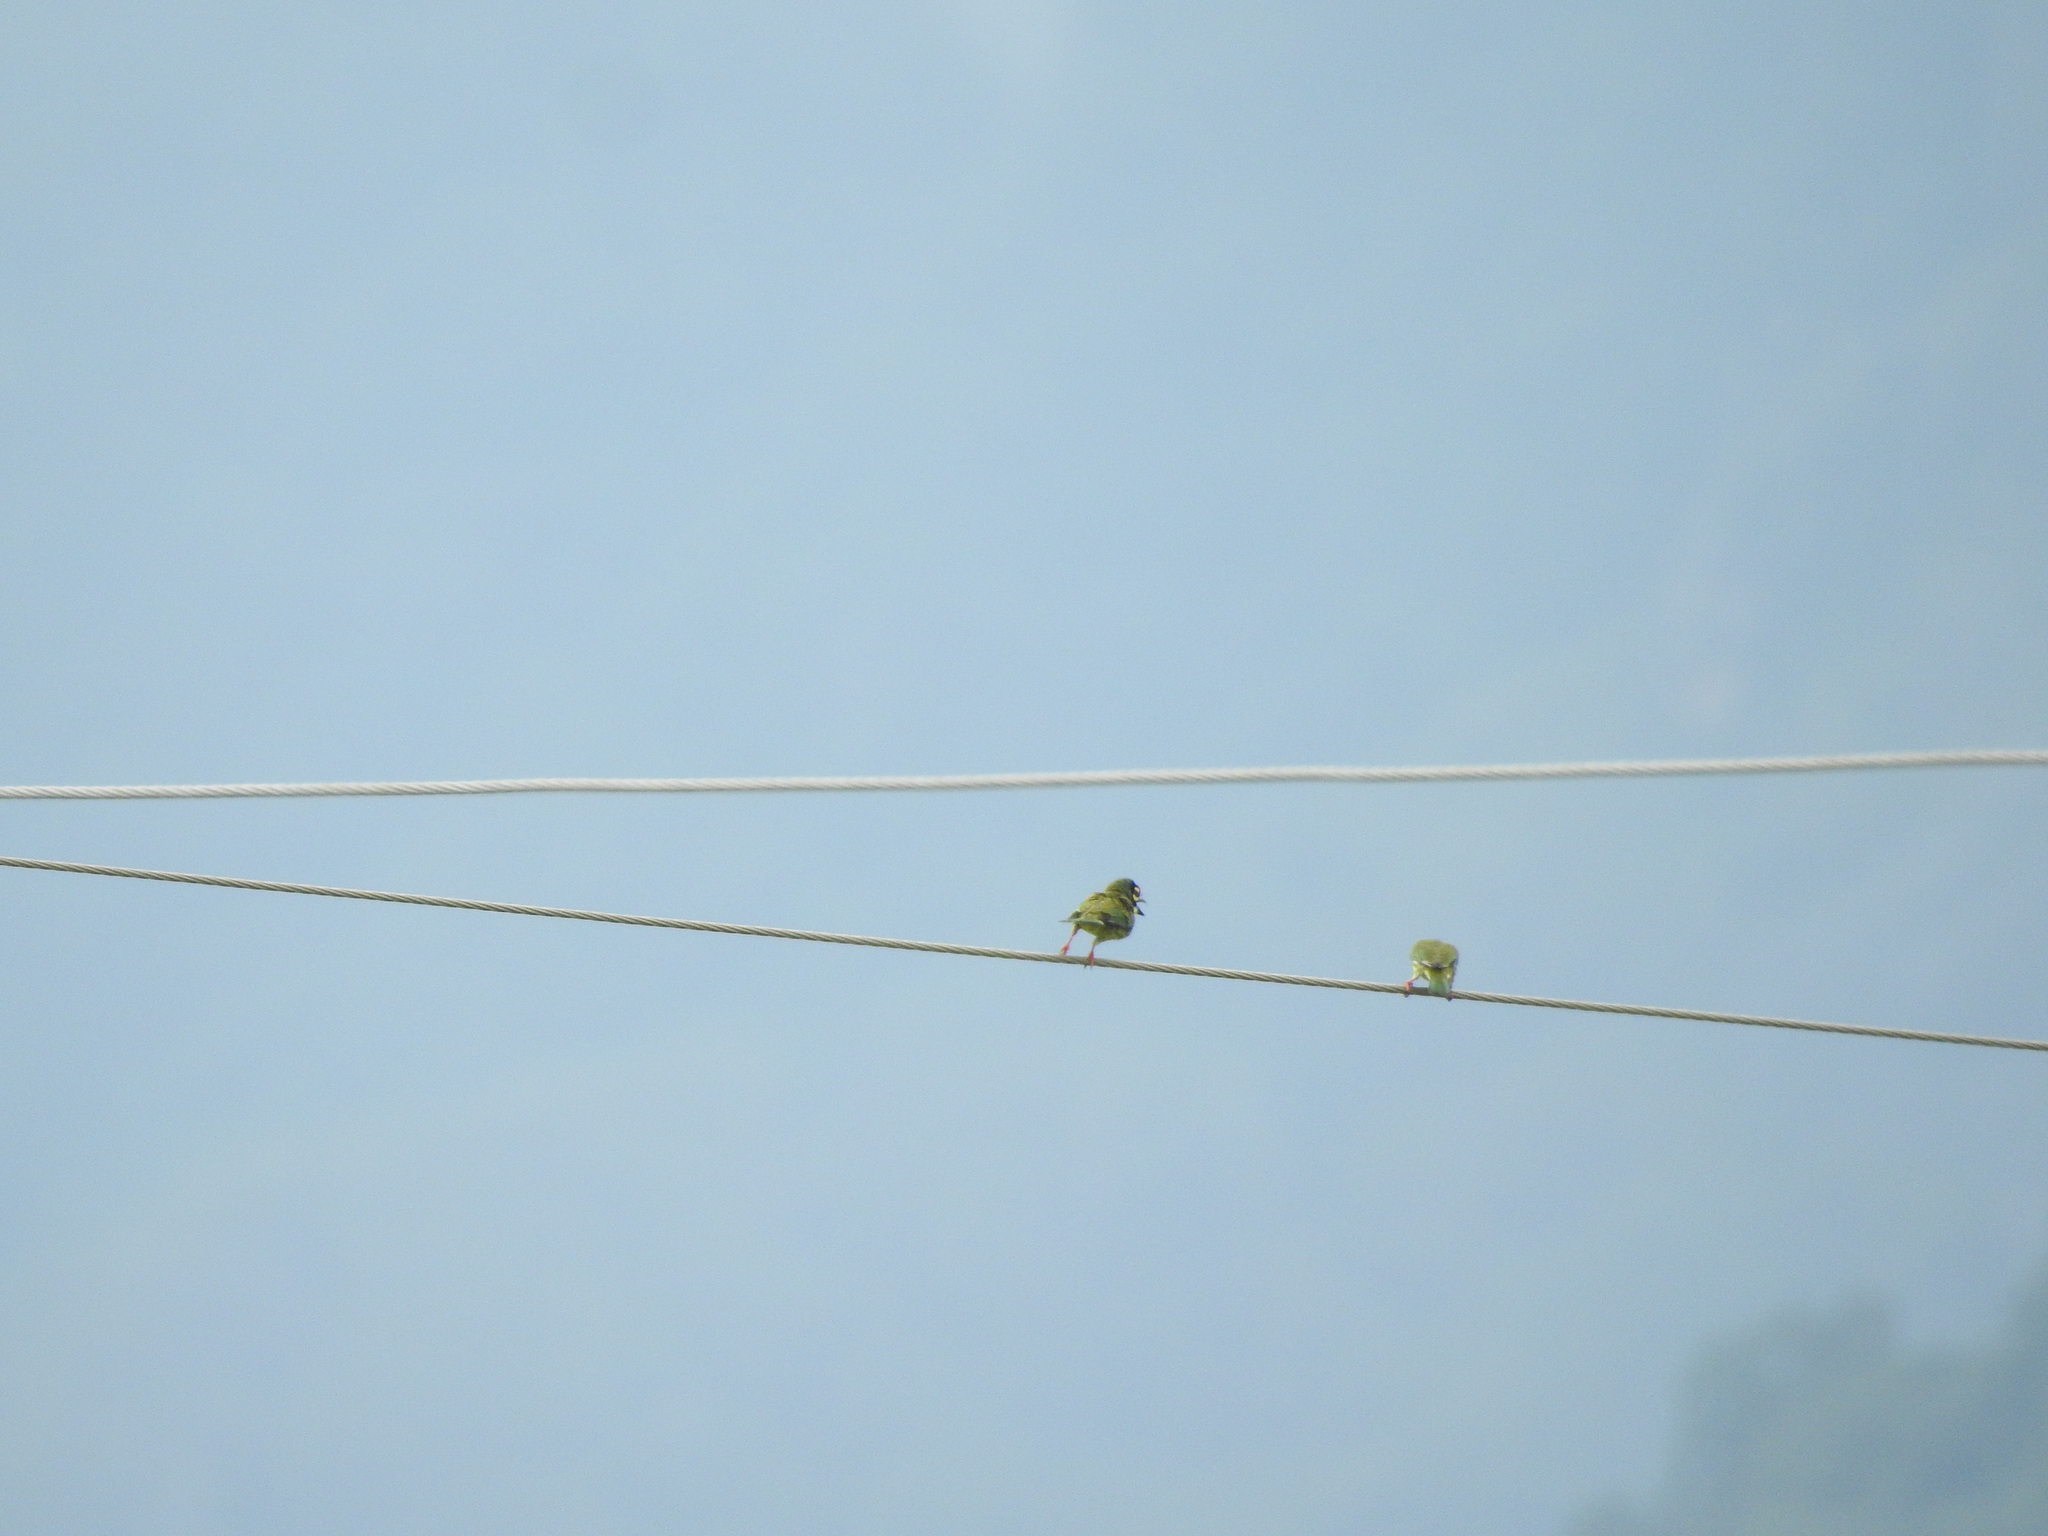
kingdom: Animalia
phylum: Chordata
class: Aves
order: Piciformes
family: Megalaimidae
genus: Psilopogon
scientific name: Psilopogon haemacephalus
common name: Coppersmith barbet
